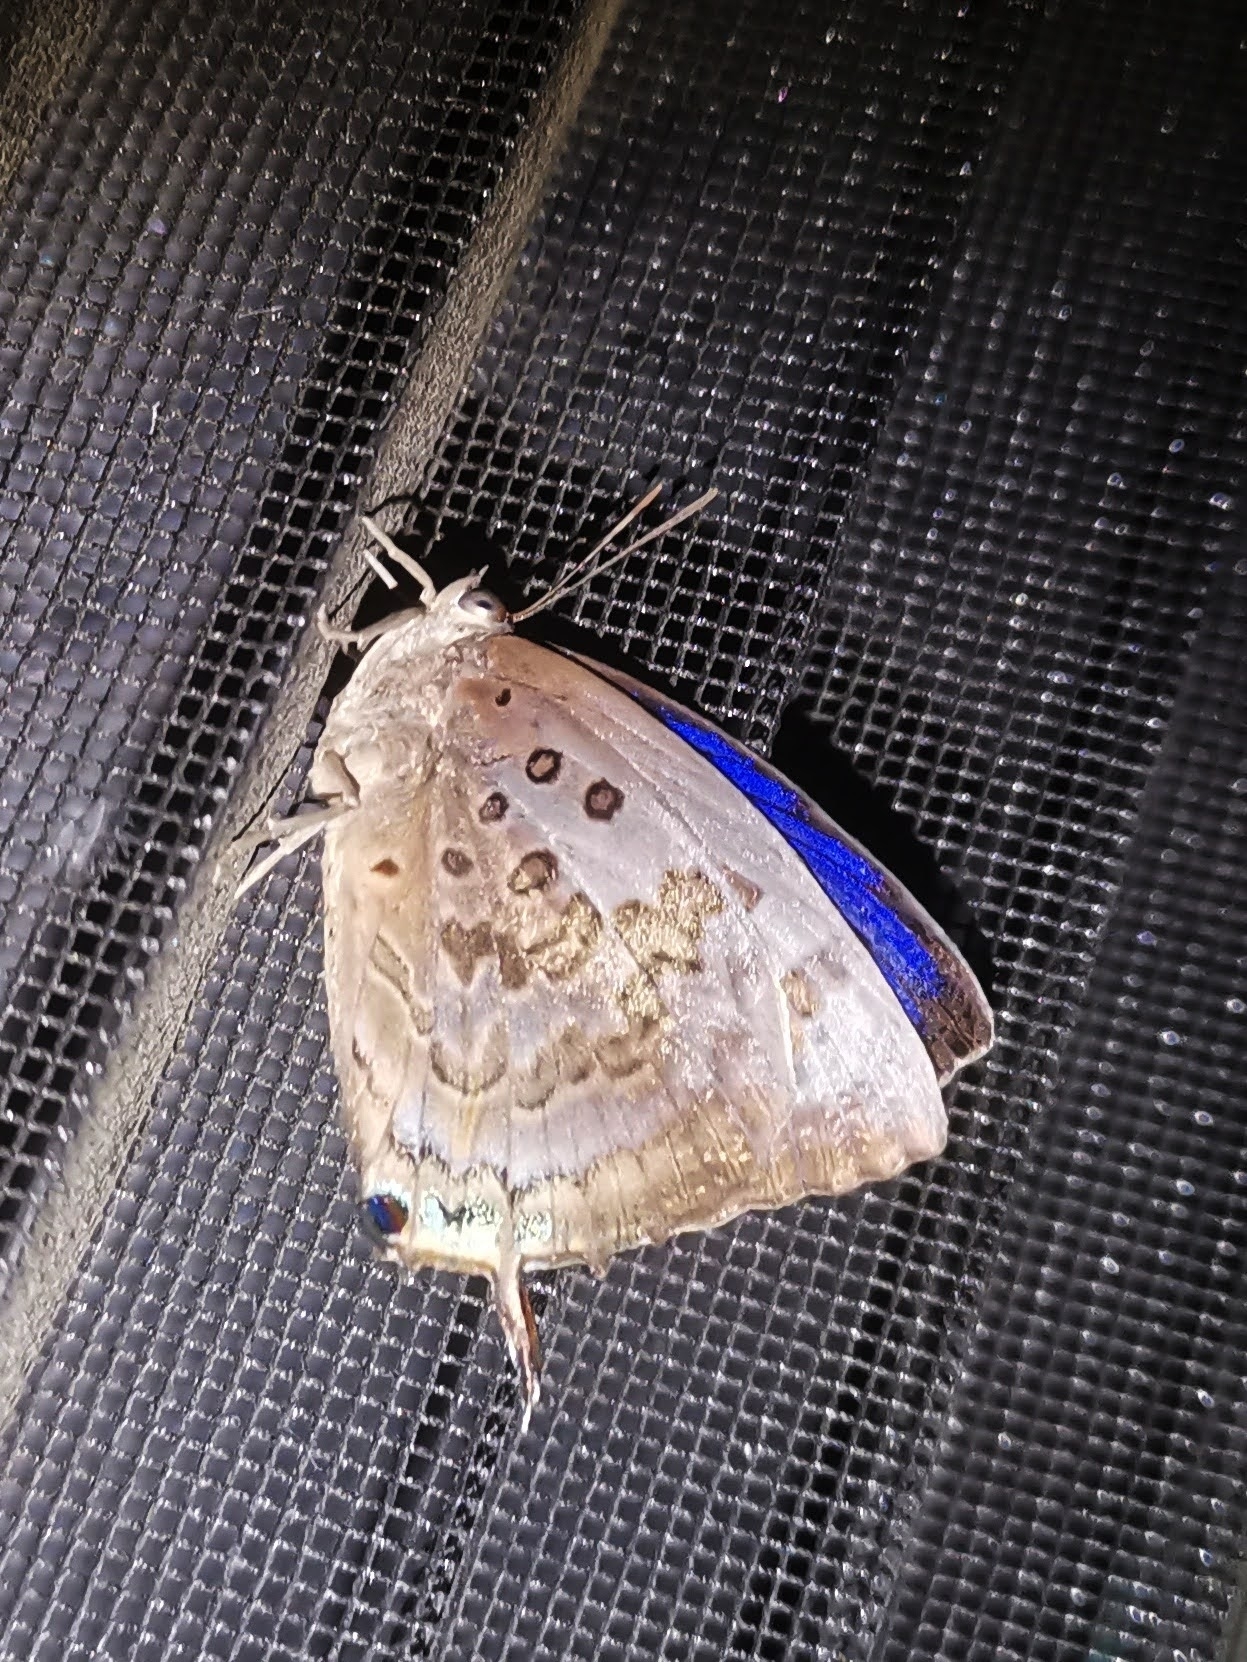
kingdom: Animalia
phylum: Arthropoda
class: Insecta
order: Lepidoptera
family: Lycaenidae
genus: Arhopala
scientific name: Arhopala amantes
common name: Large oakblue
